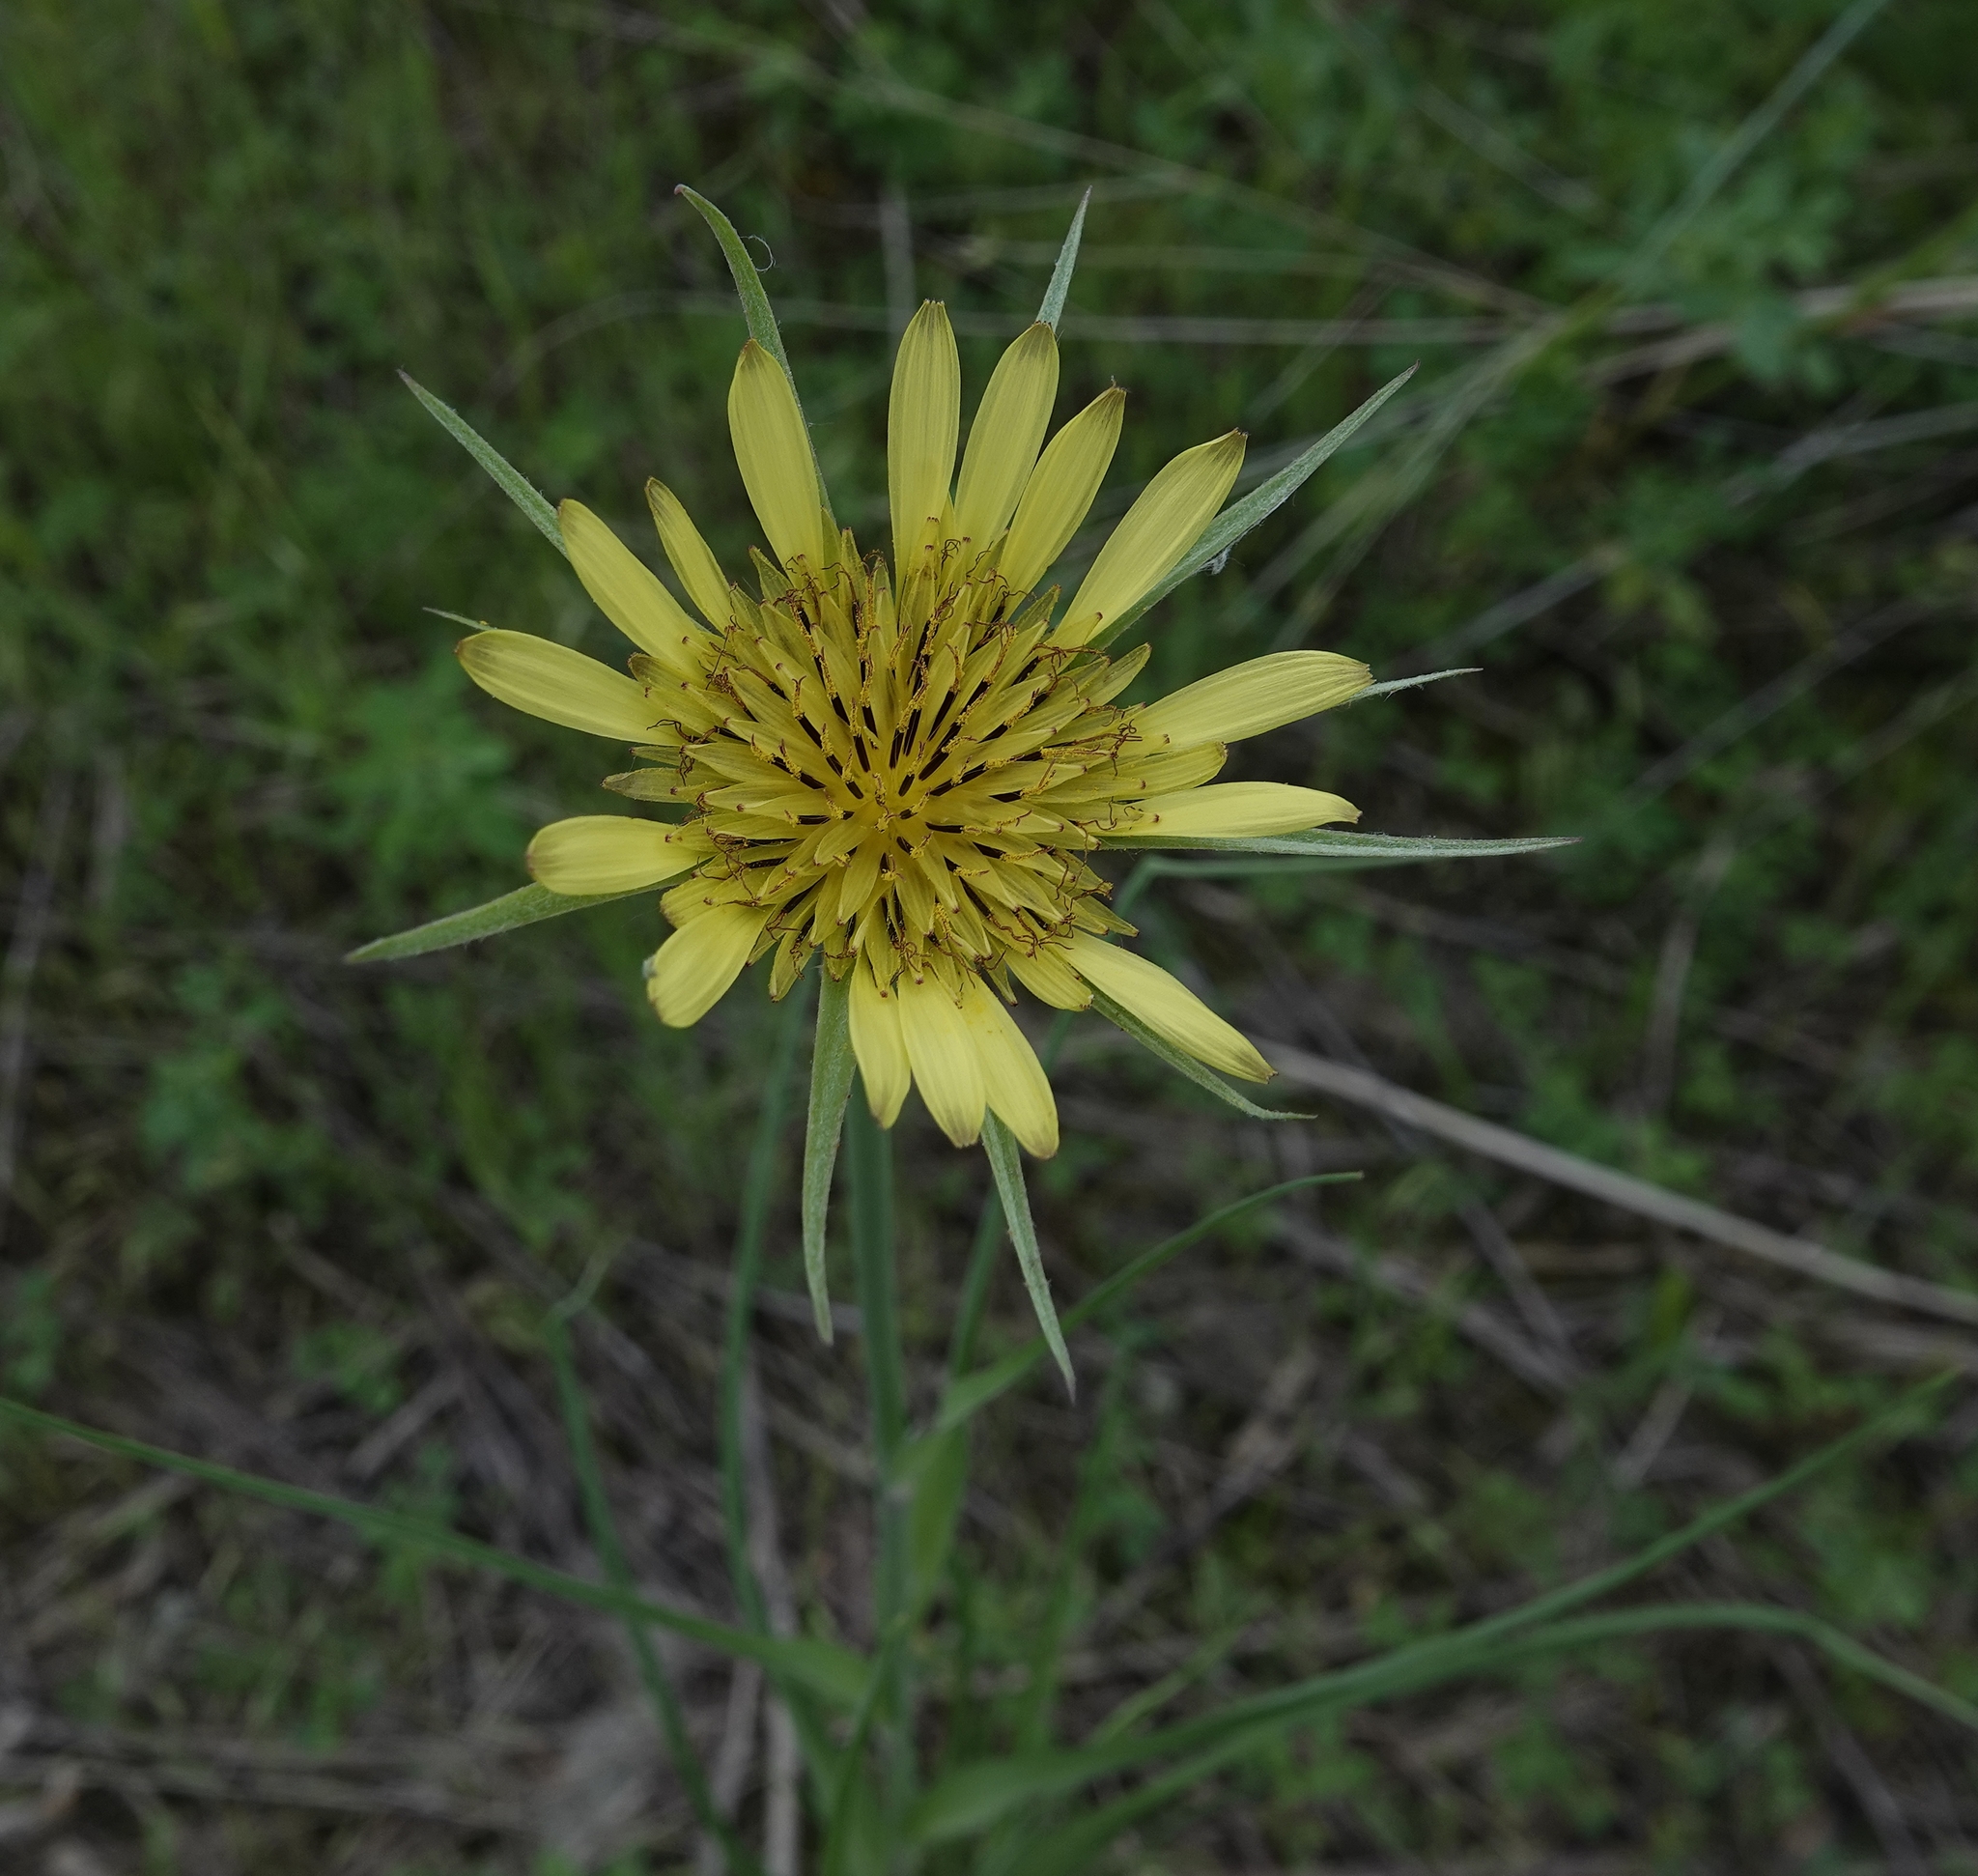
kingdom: Plantae
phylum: Tracheophyta
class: Magnoliopsida
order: Asterales
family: Asteraceae
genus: Tragopogon
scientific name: Tragopogon dubius
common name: Yellow salsify
